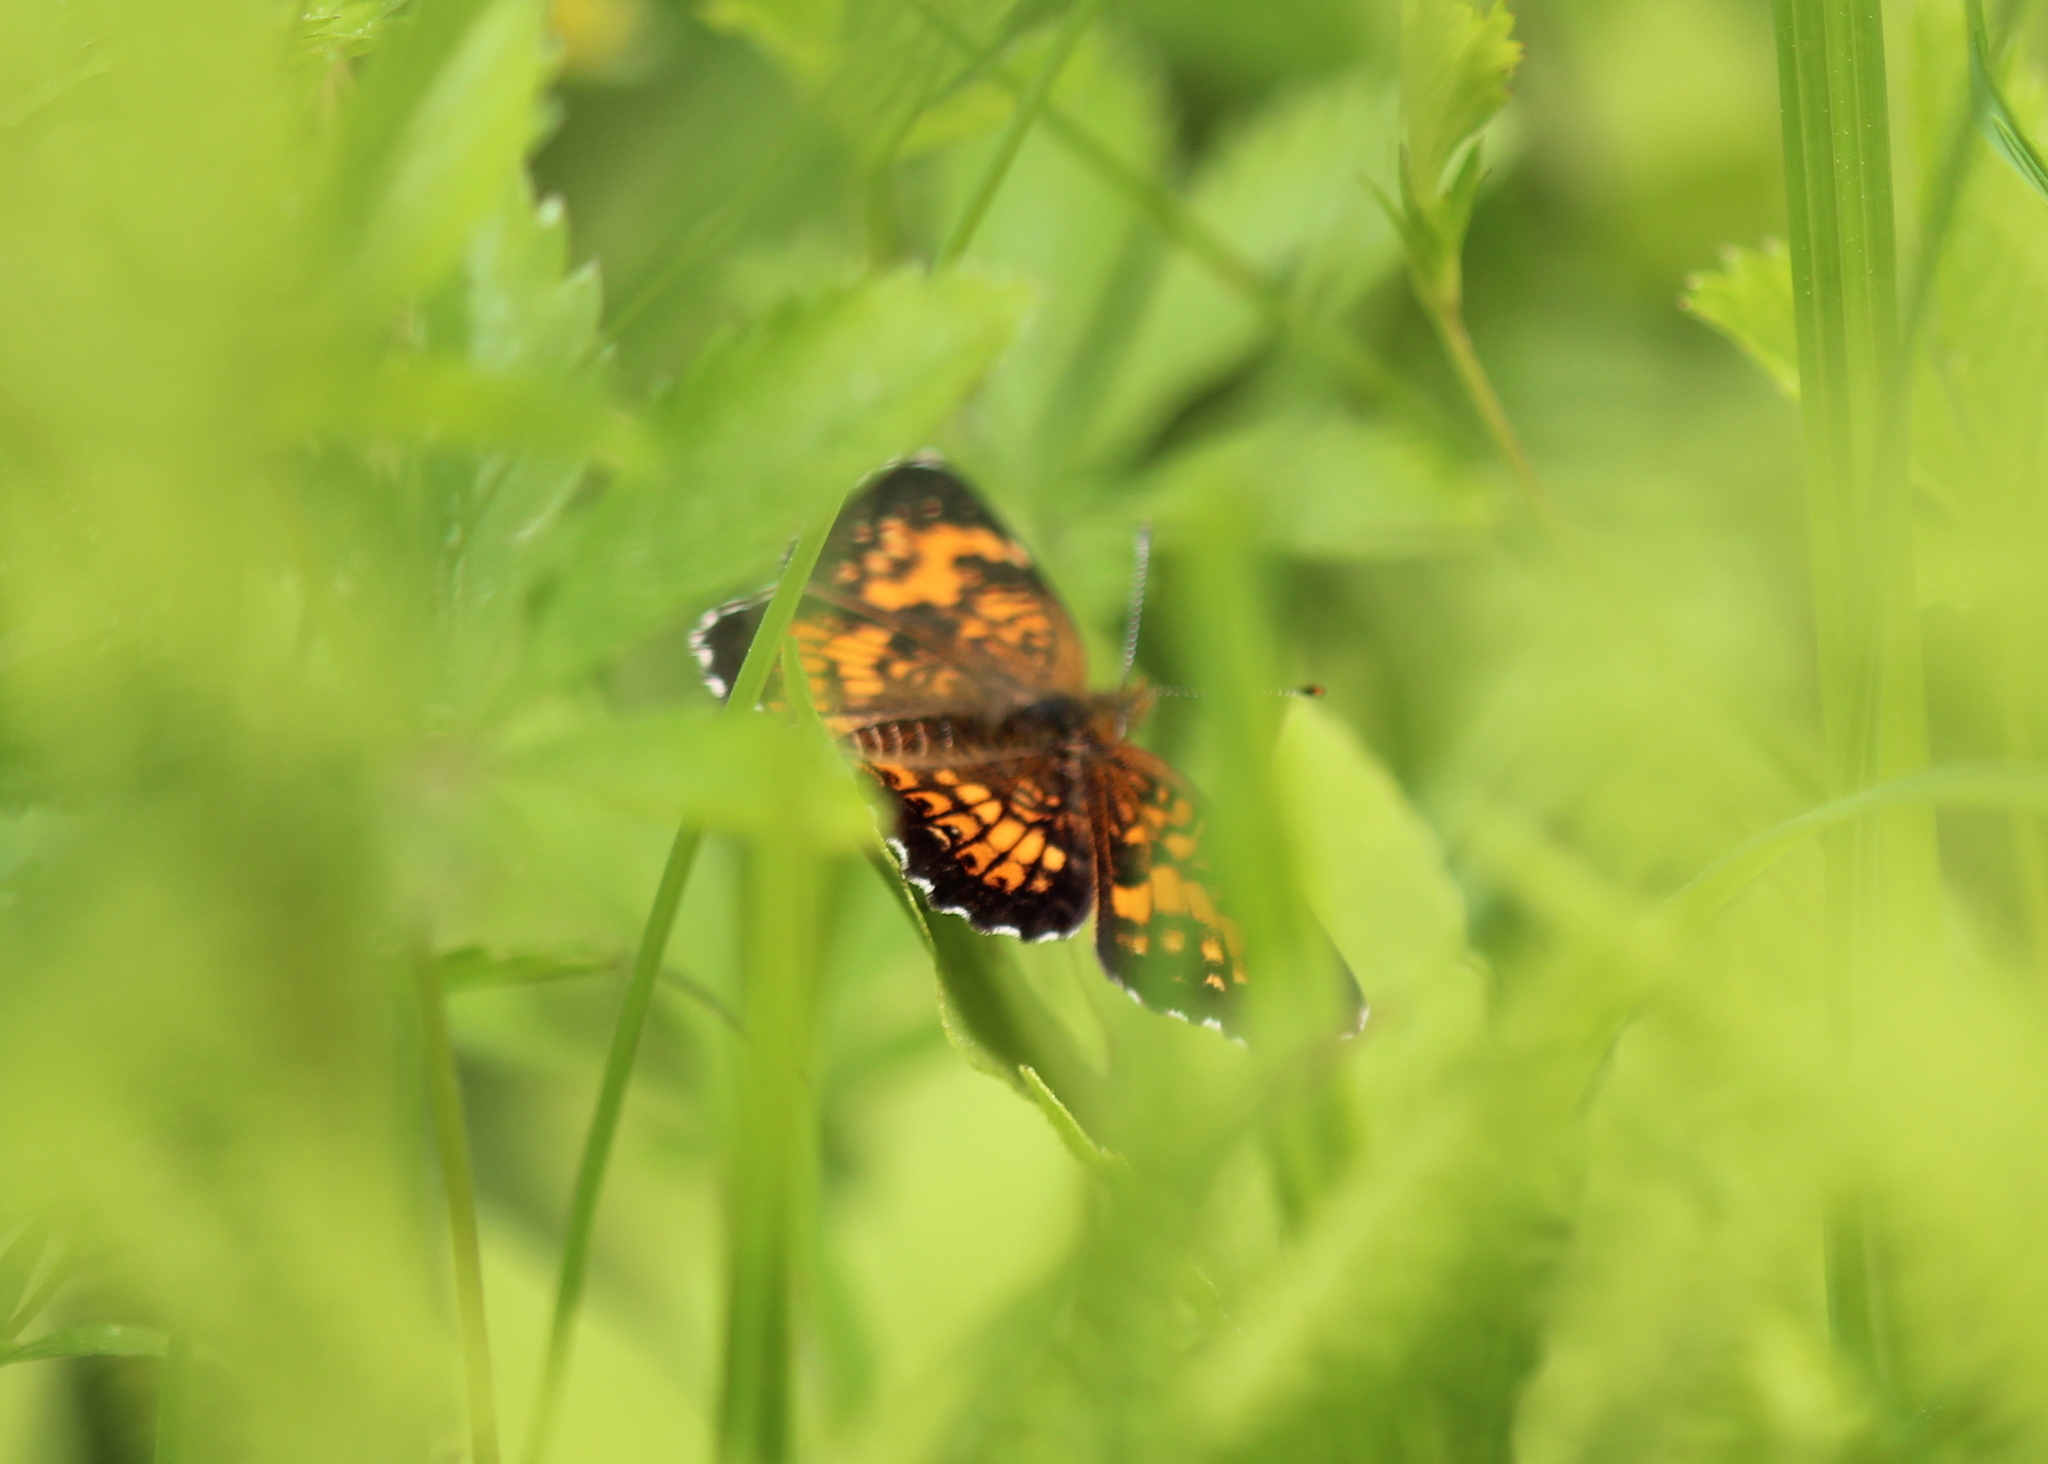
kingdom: Animalia
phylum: Arthropoda
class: Insecta
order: Lepidoptera
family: Nymphalidae
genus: Chlosyne
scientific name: Chlosyne harrisii
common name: Harris's checkerspot
